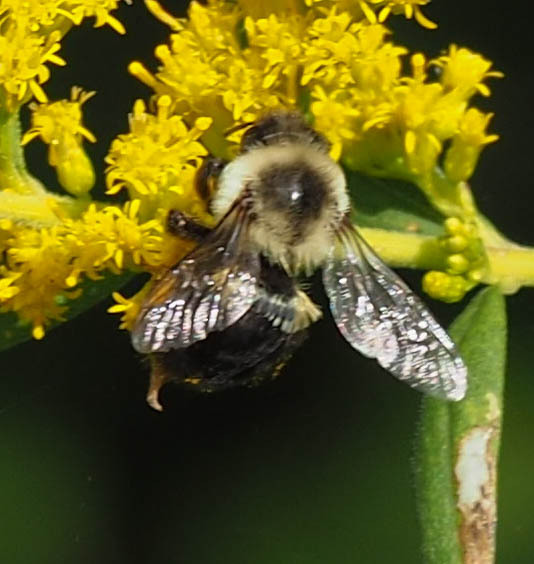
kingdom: Animalia
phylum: Arthropoda
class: Insecta
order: Hymenoptera
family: Apidae
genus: Bombus
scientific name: Bombus impatiens
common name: Common eastern bumble bee
